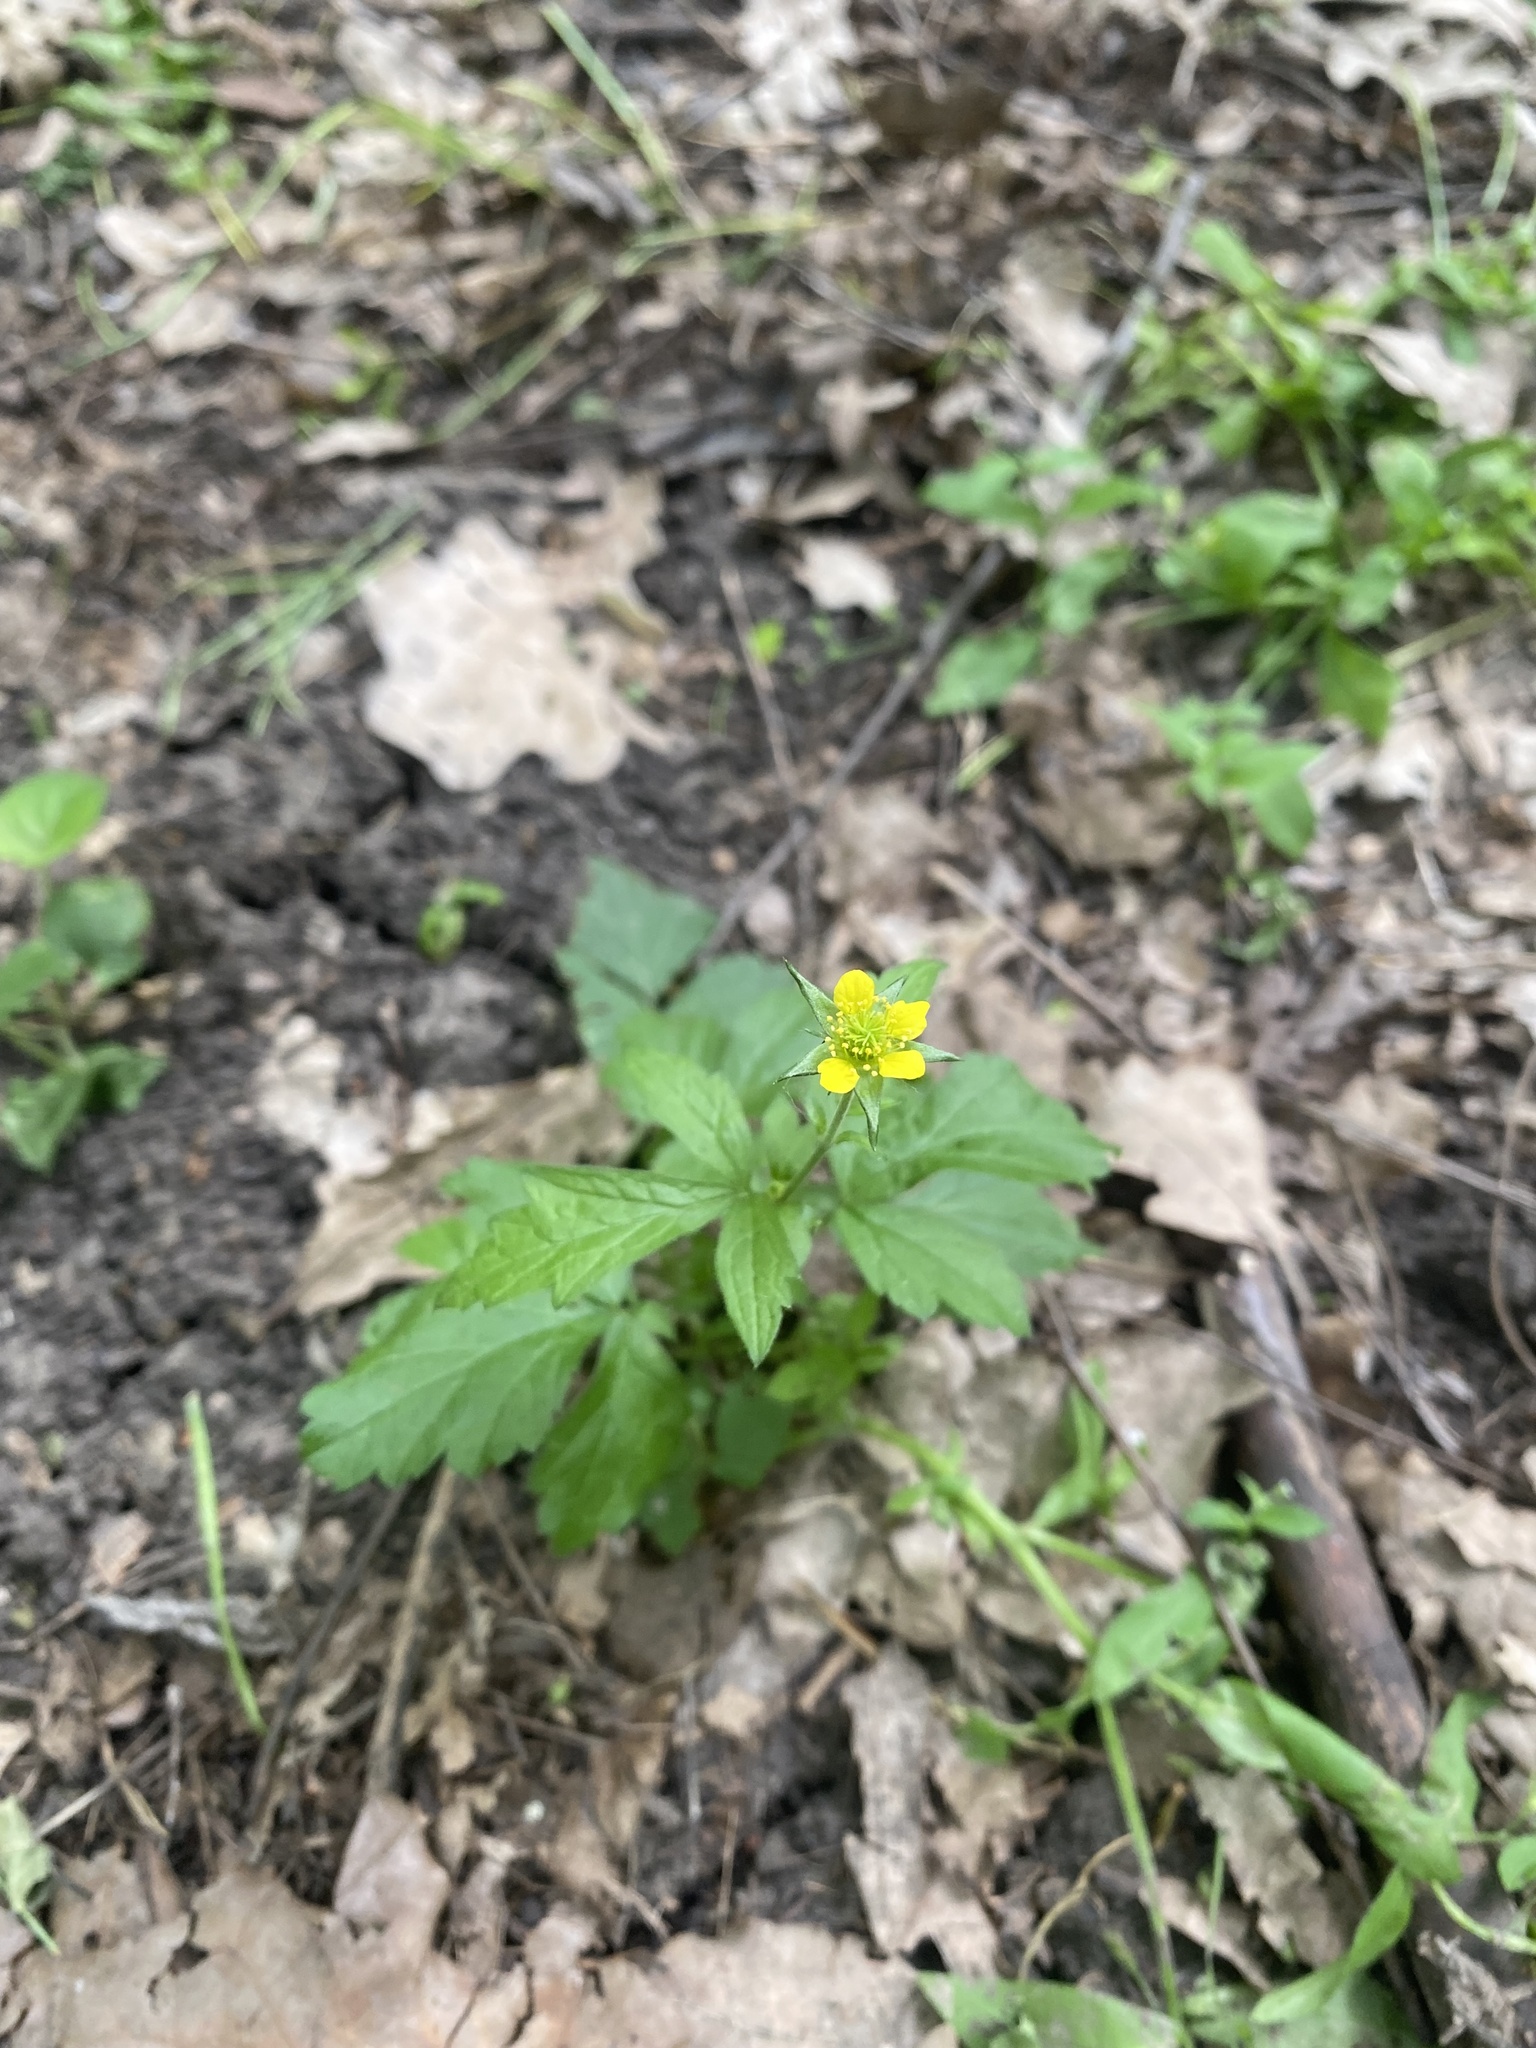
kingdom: Plantae
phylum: Tracheophyta
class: Magnoliopsida
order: Rosales
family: Rosaceae
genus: Geum
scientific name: Geum urbanum
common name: Wood avens
